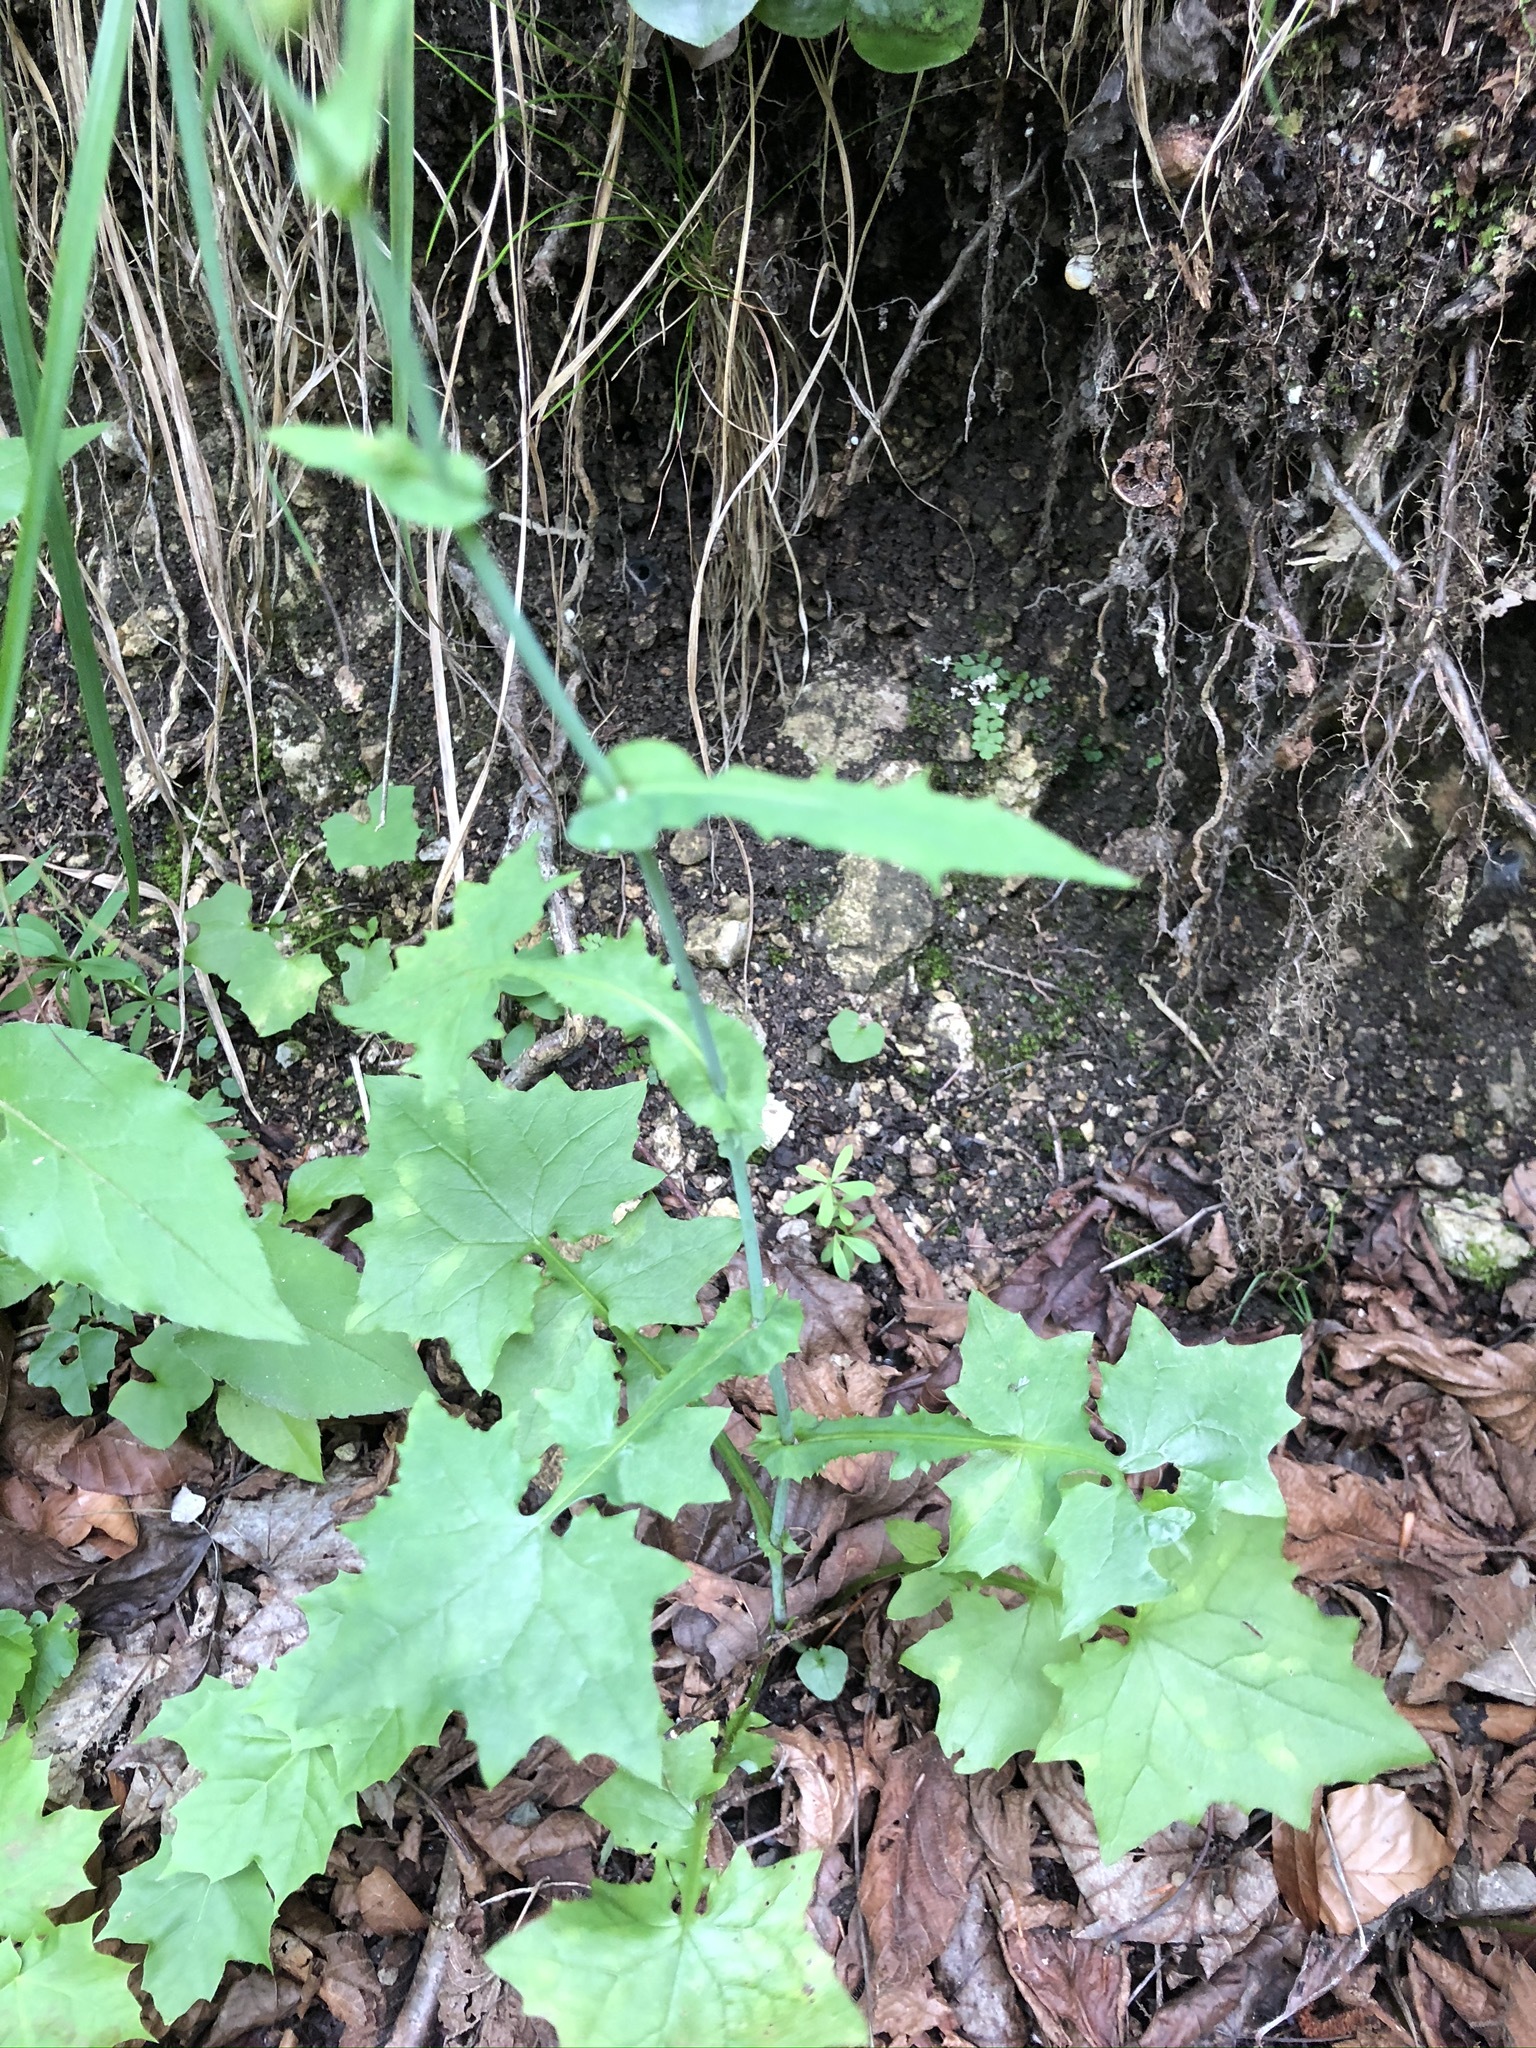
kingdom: Plantae
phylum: Tracheophyta
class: Magnoliopsida
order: Asterales
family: Asteraceae
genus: Mycelis
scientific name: Mycelis muralis
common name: Wall lettuce
